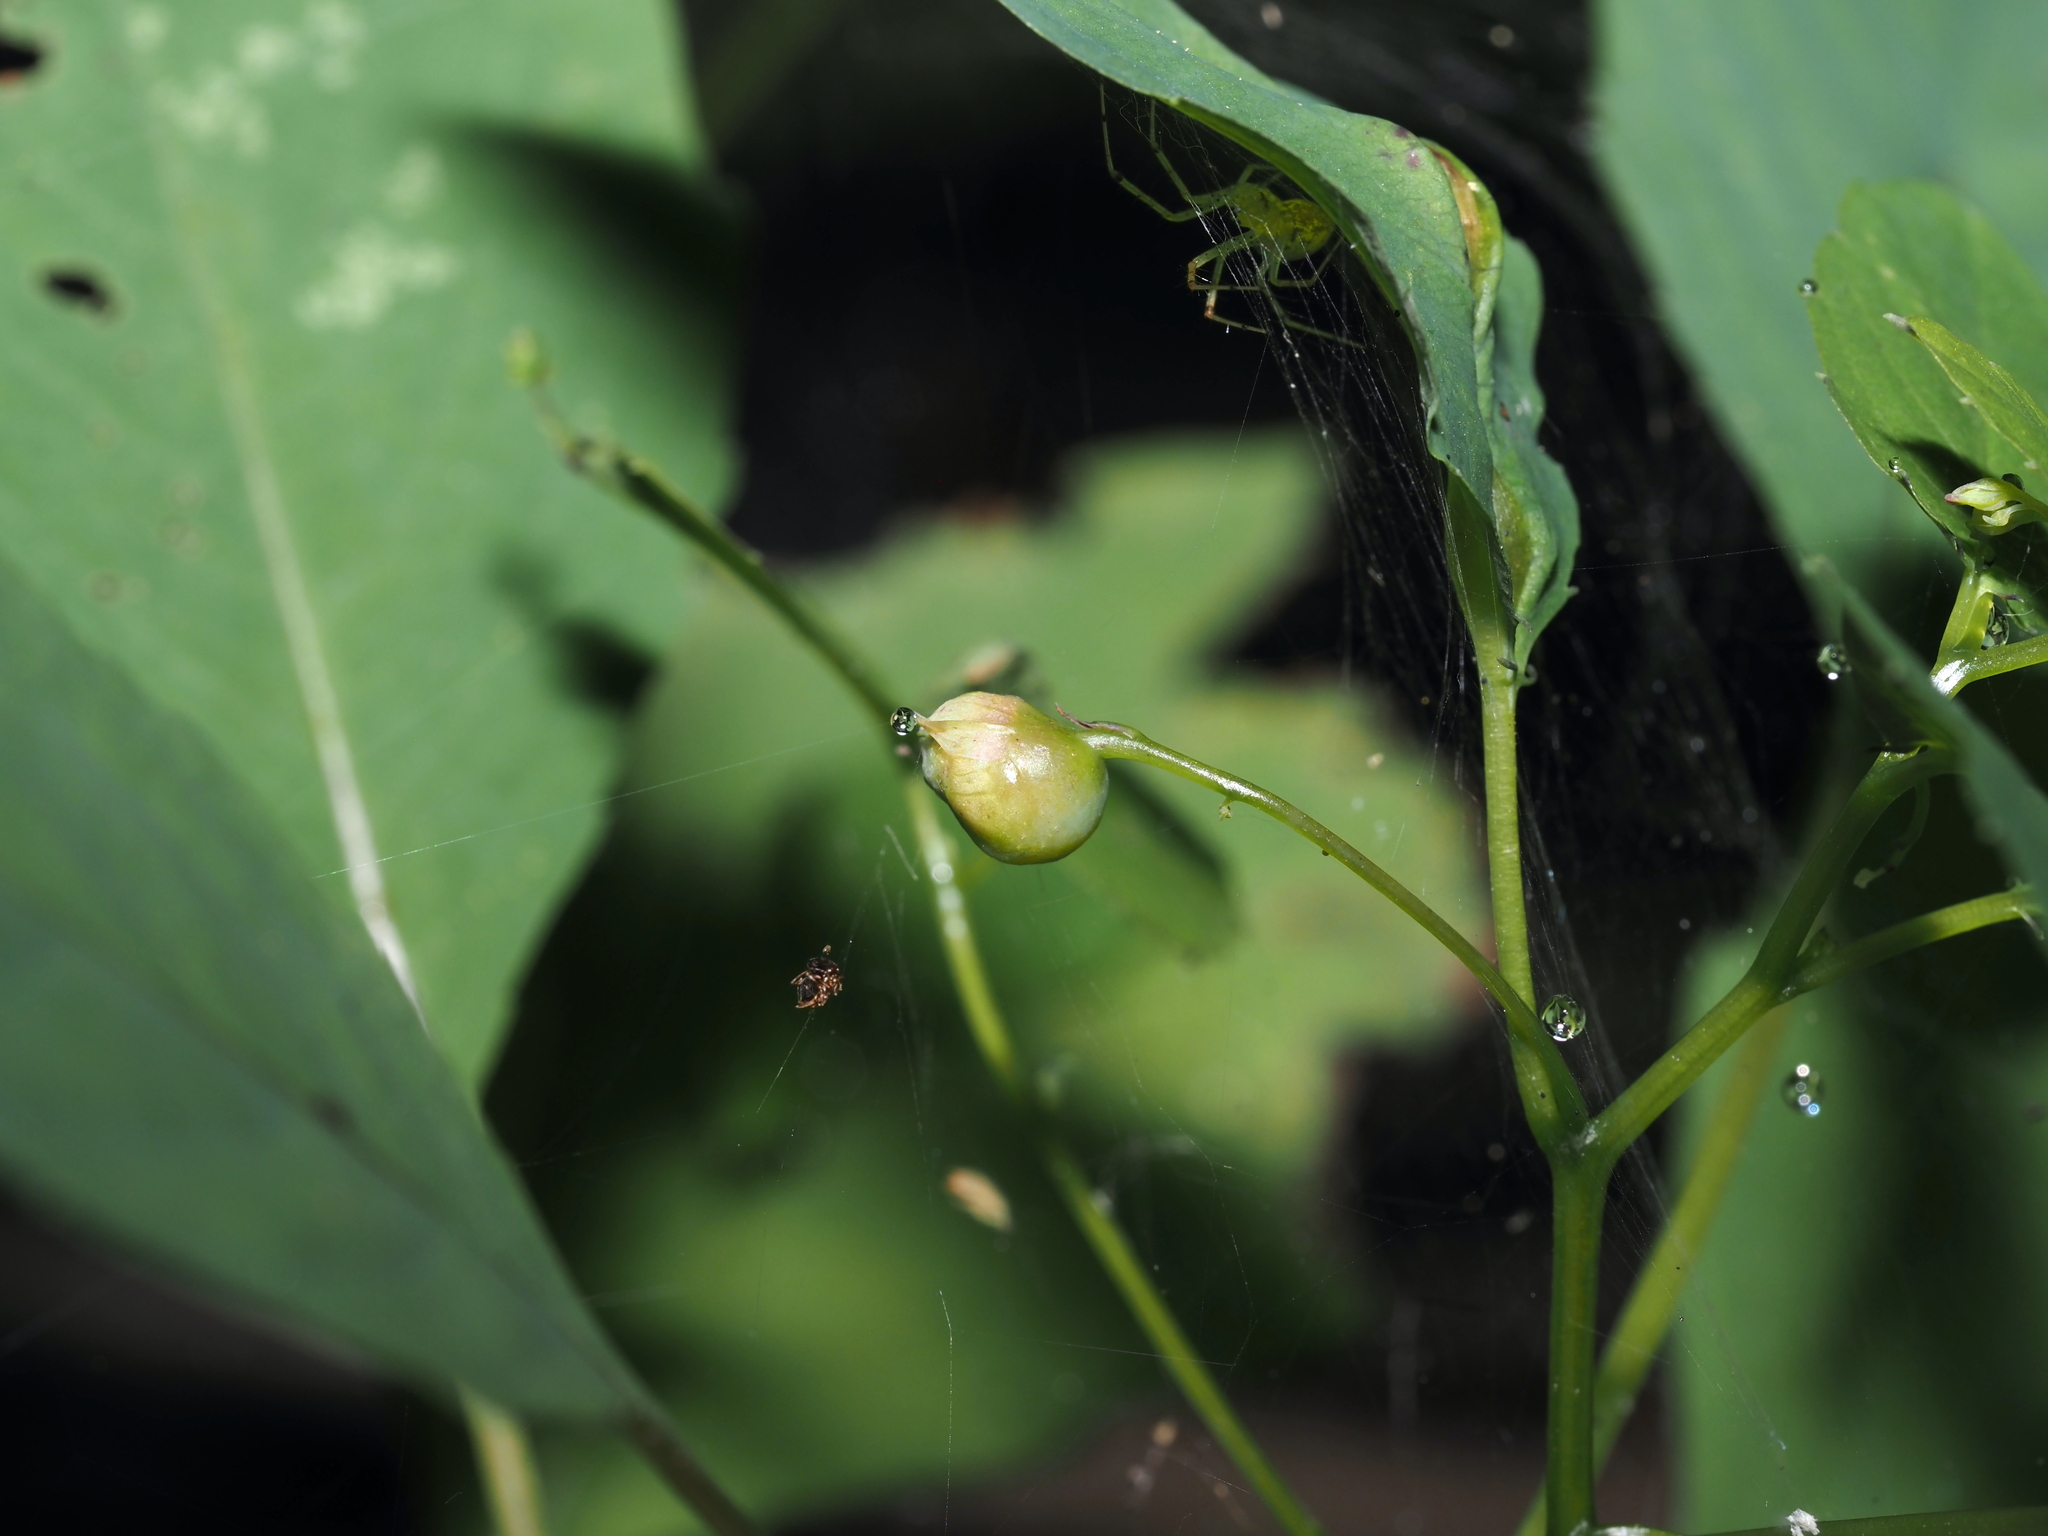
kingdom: Animalia
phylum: Arthropoda
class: Insecta
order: Diptera
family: Cecidomyiidae
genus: Schizomyia
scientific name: Schizomyia impatientis
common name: Jewelweed gall midge
